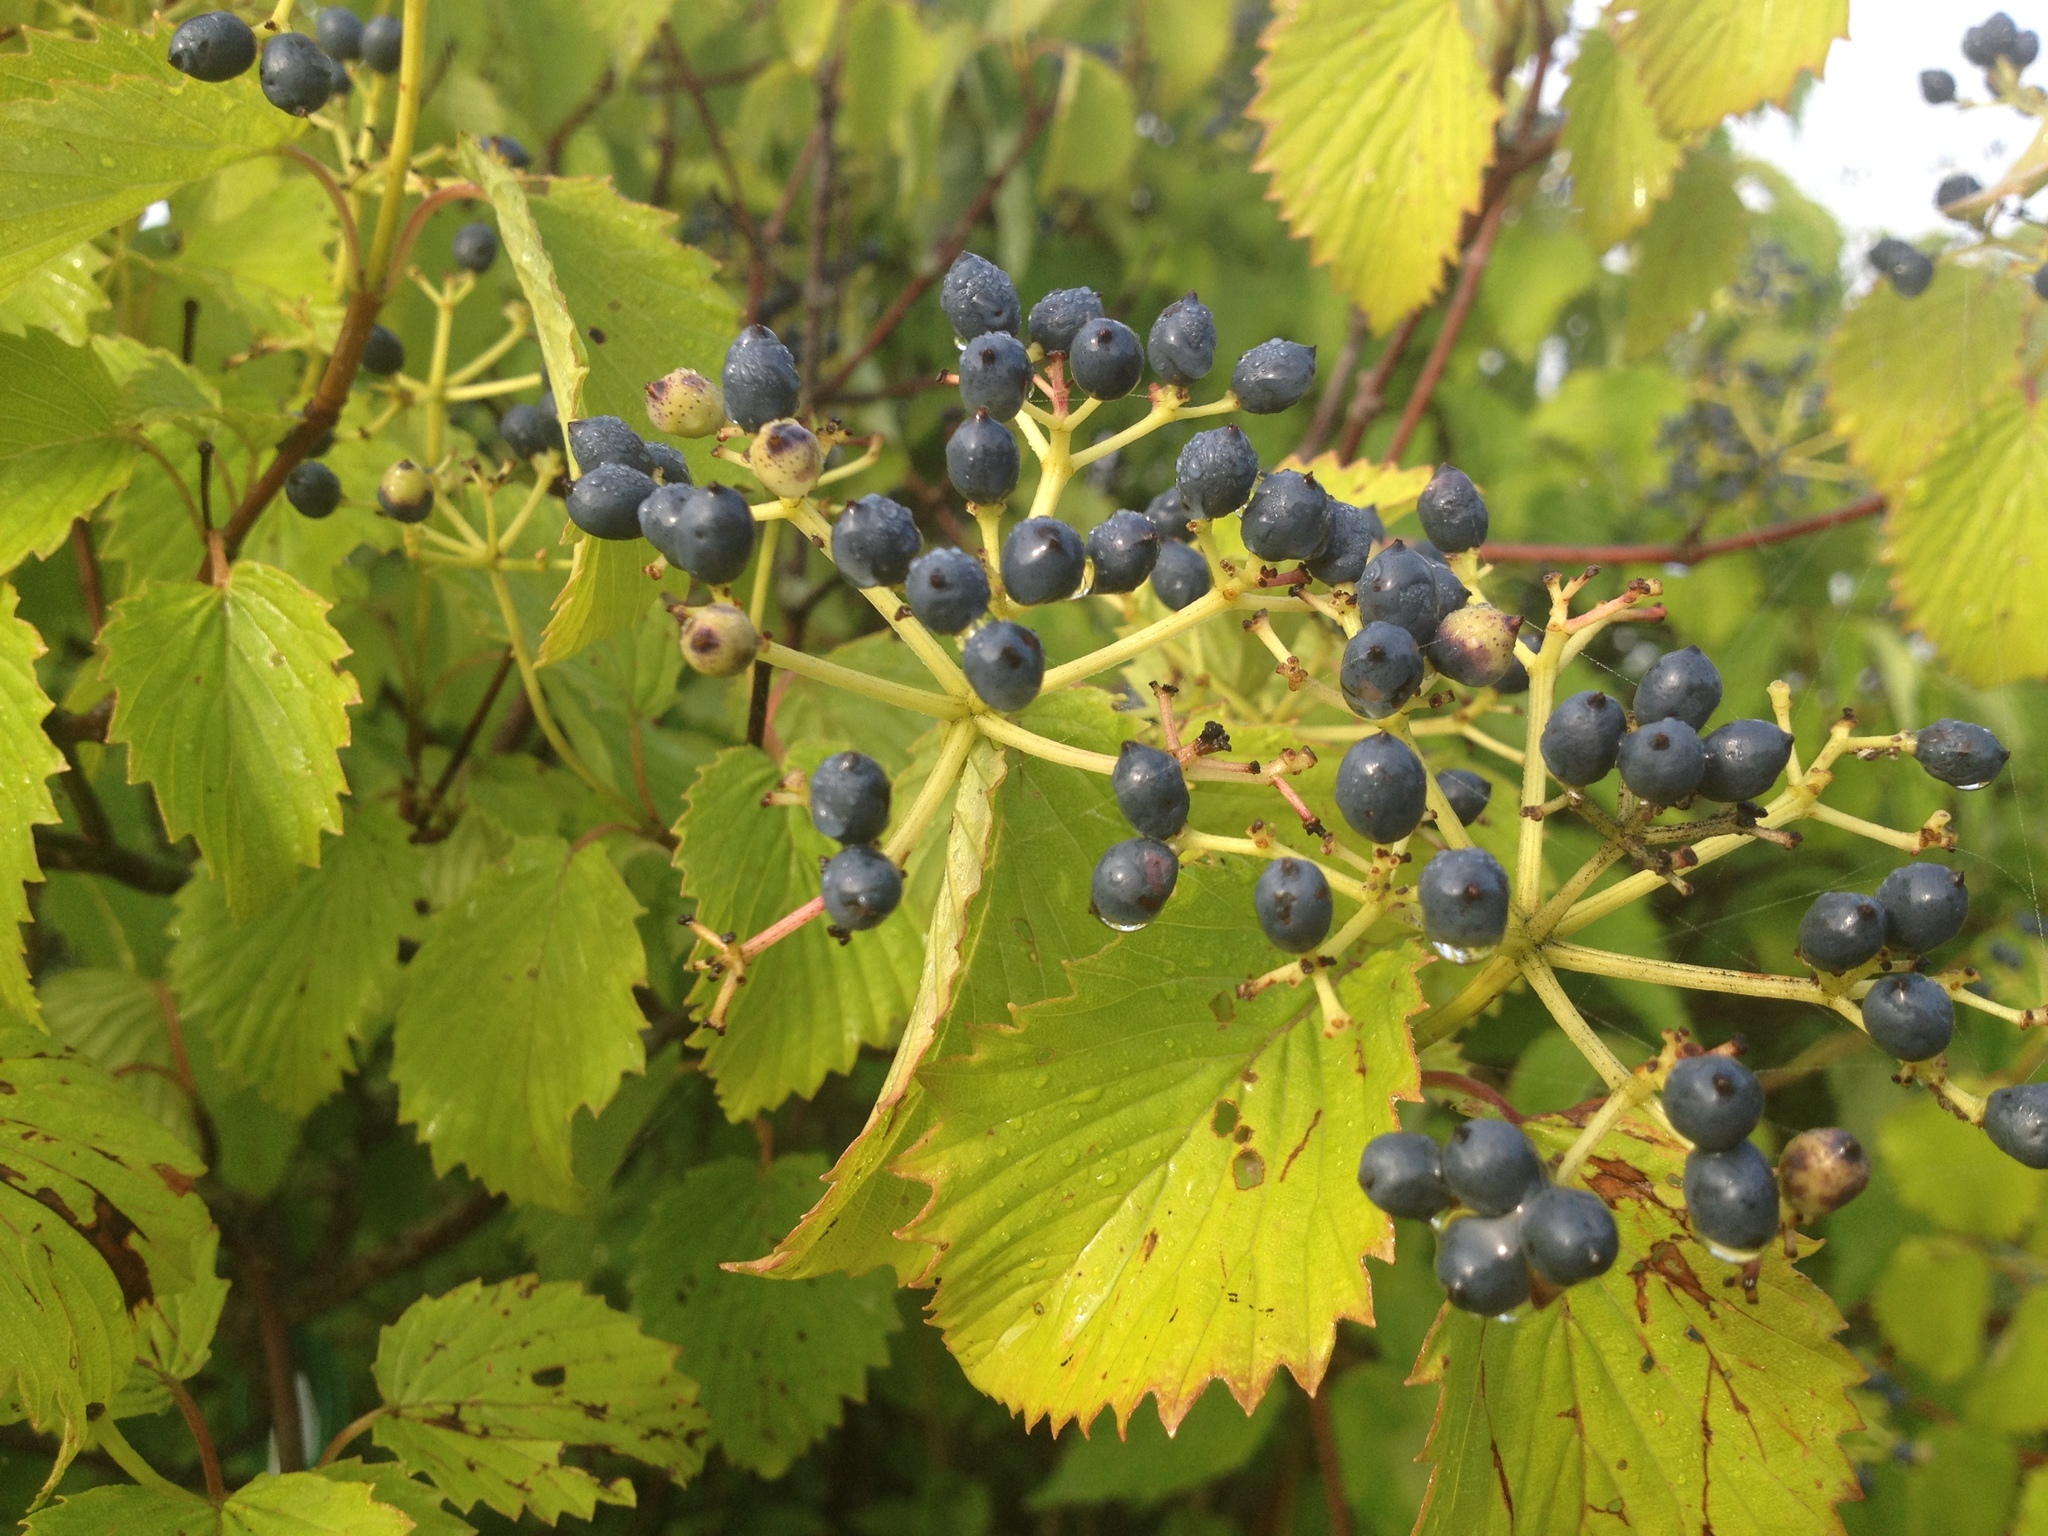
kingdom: Plantae
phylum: Tracheophyta
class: Magnoliopsida
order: Dipsacales
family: Viburnaceae
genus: Viburnum
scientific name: Viburnum dentatum
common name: Arrow-wood
